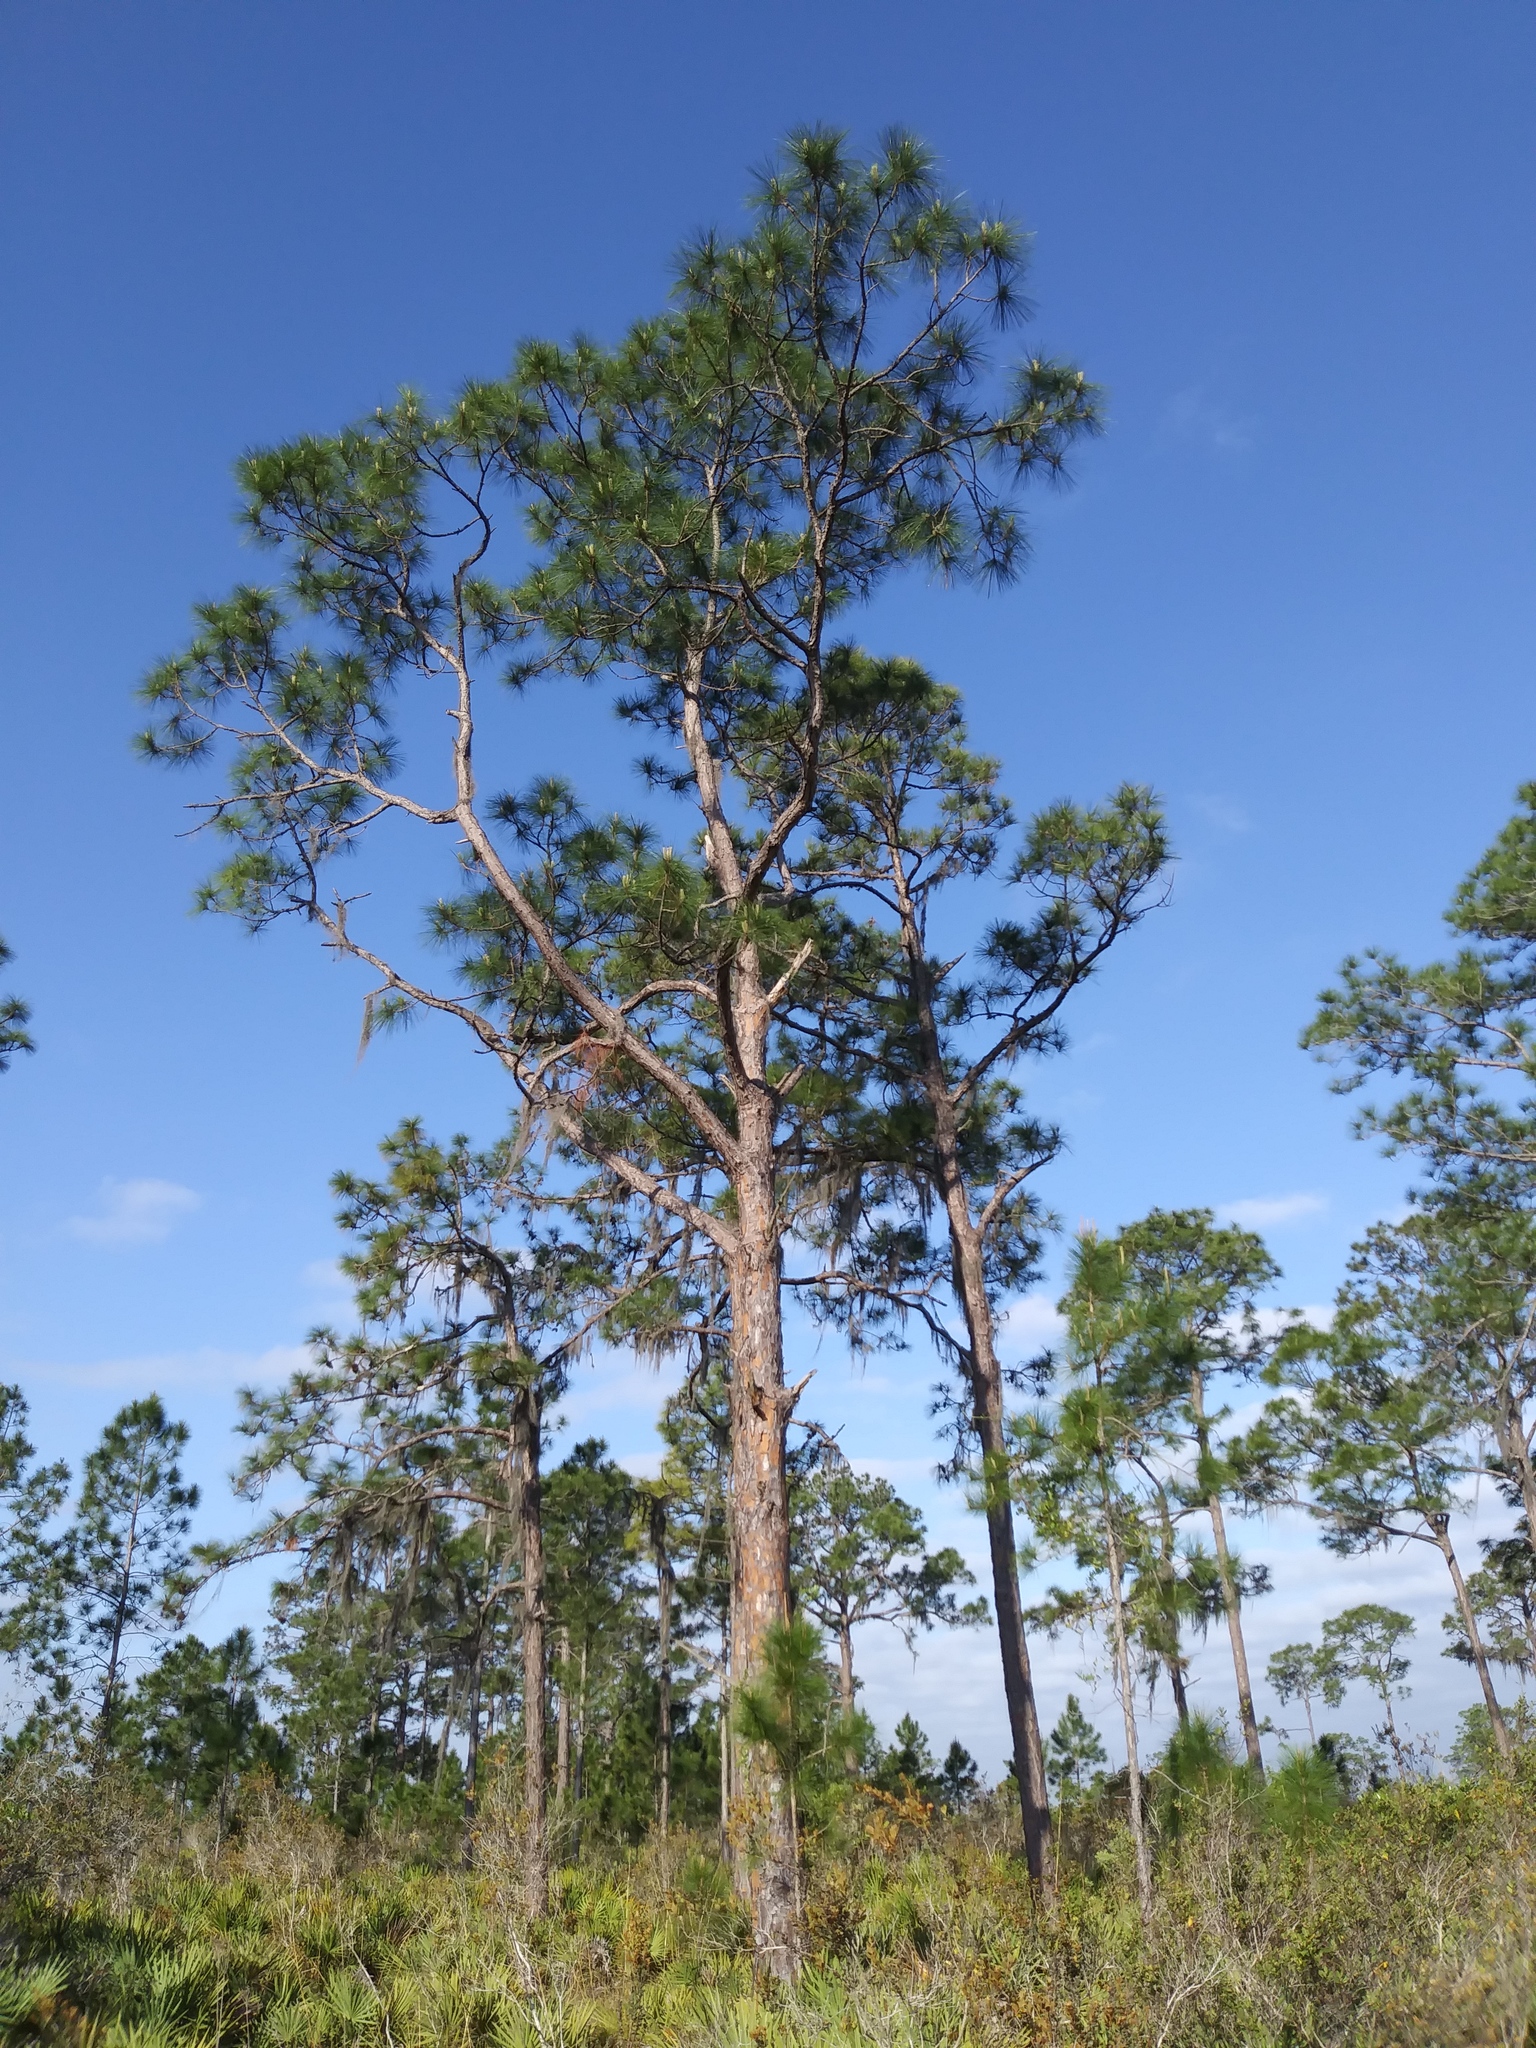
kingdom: Plantae
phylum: Tracheophyta
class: Pinopsida
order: Pinales
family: Pinaceae
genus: Pinus
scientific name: Pinus elliottii
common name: Slash pine
